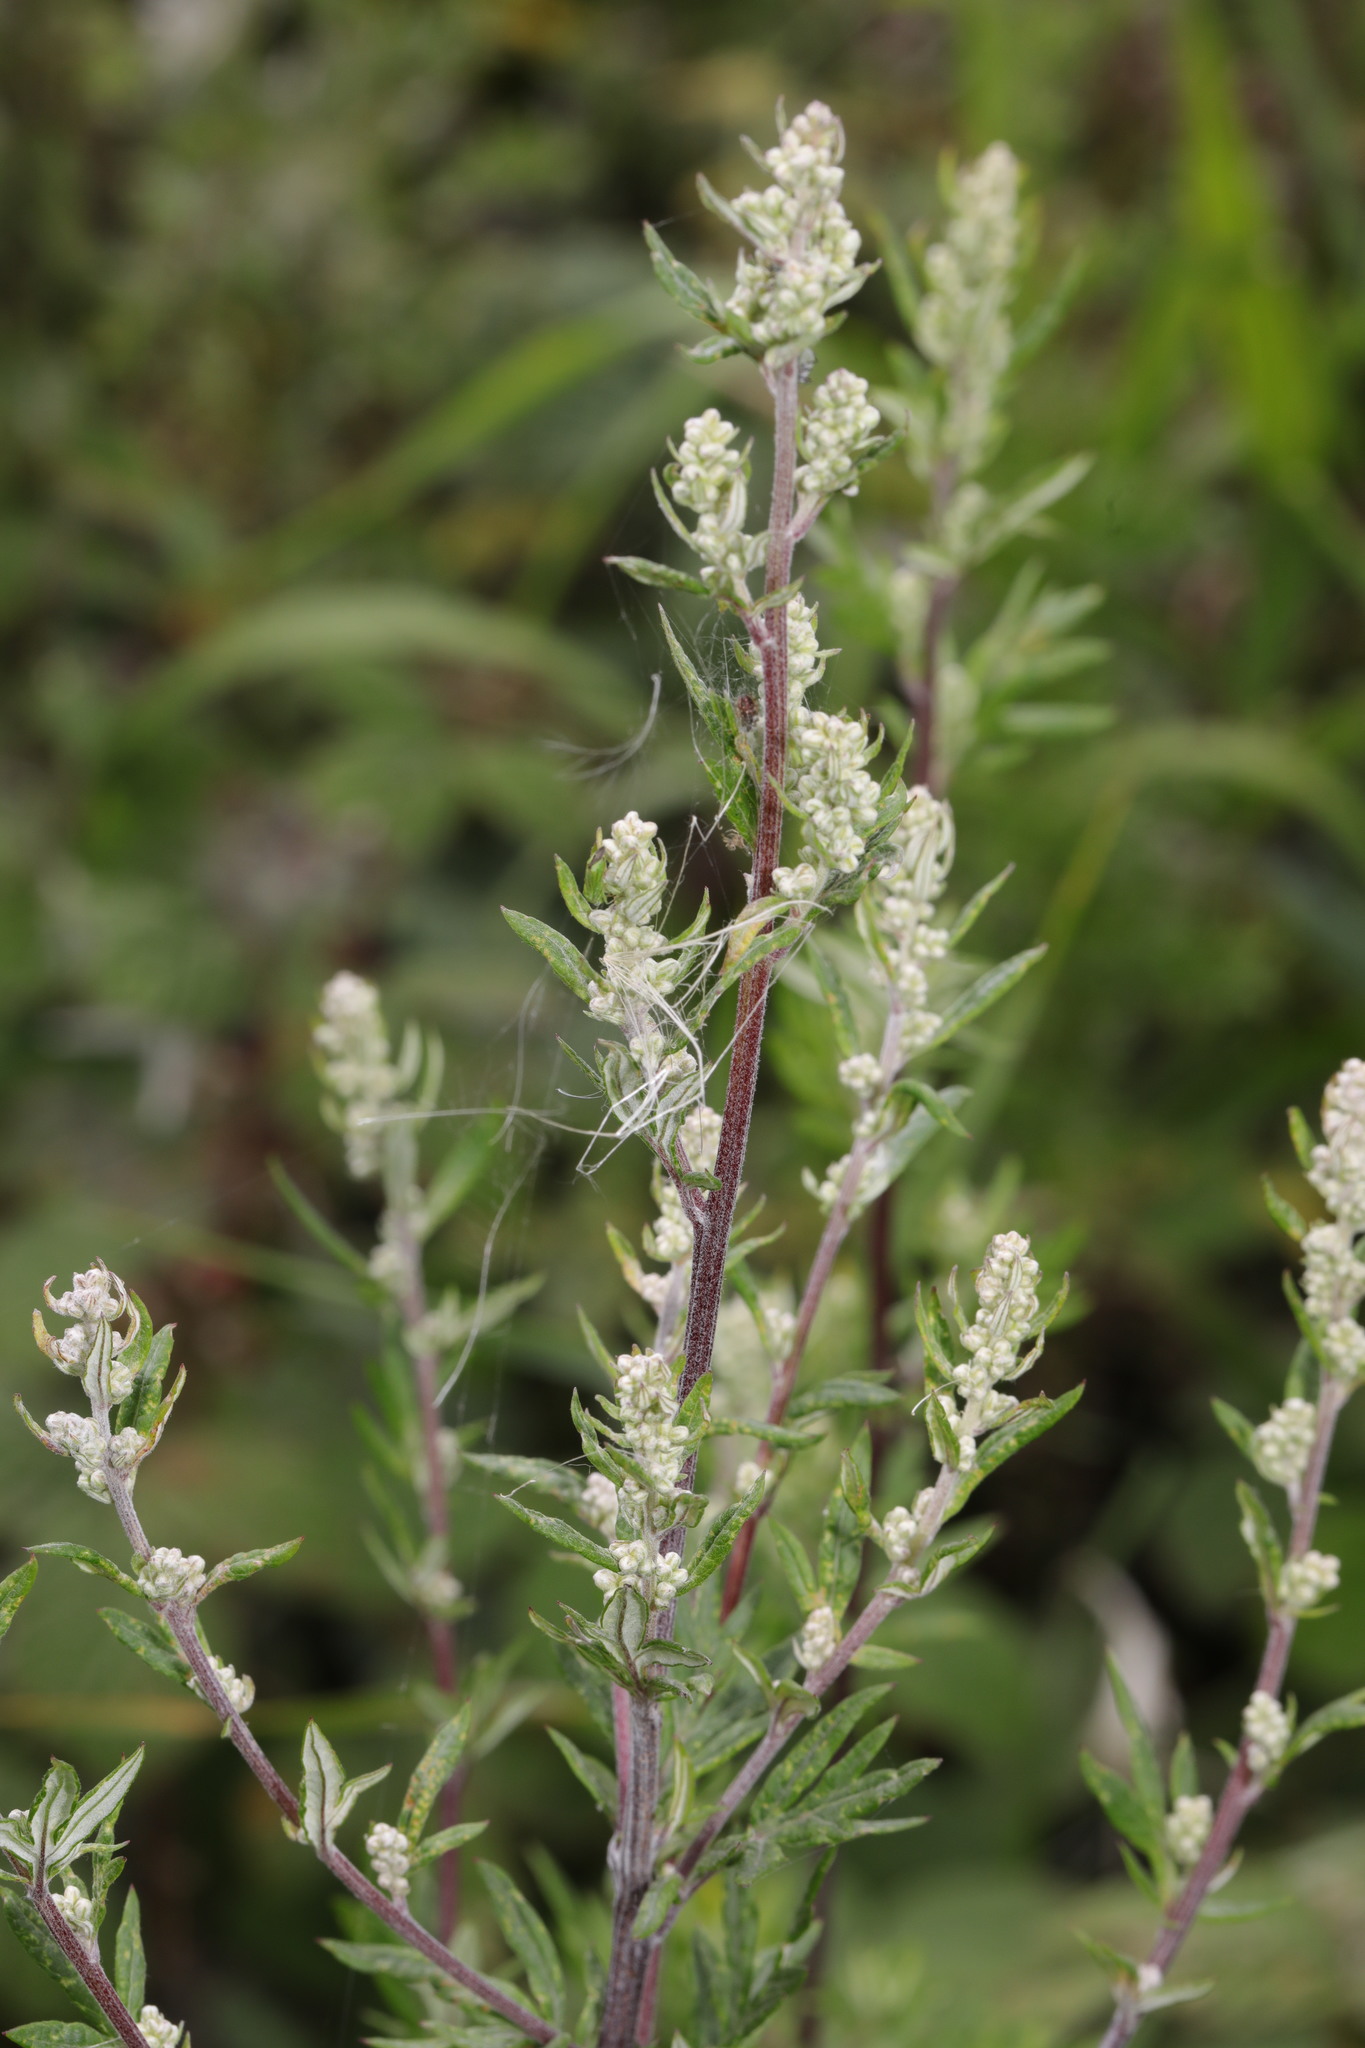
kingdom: Plantae
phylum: Tracheophyta
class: Magnoliopsida
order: Asterales
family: Asteraceae
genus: Artemisia
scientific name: Artemisia vulgaris
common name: Mugwort
